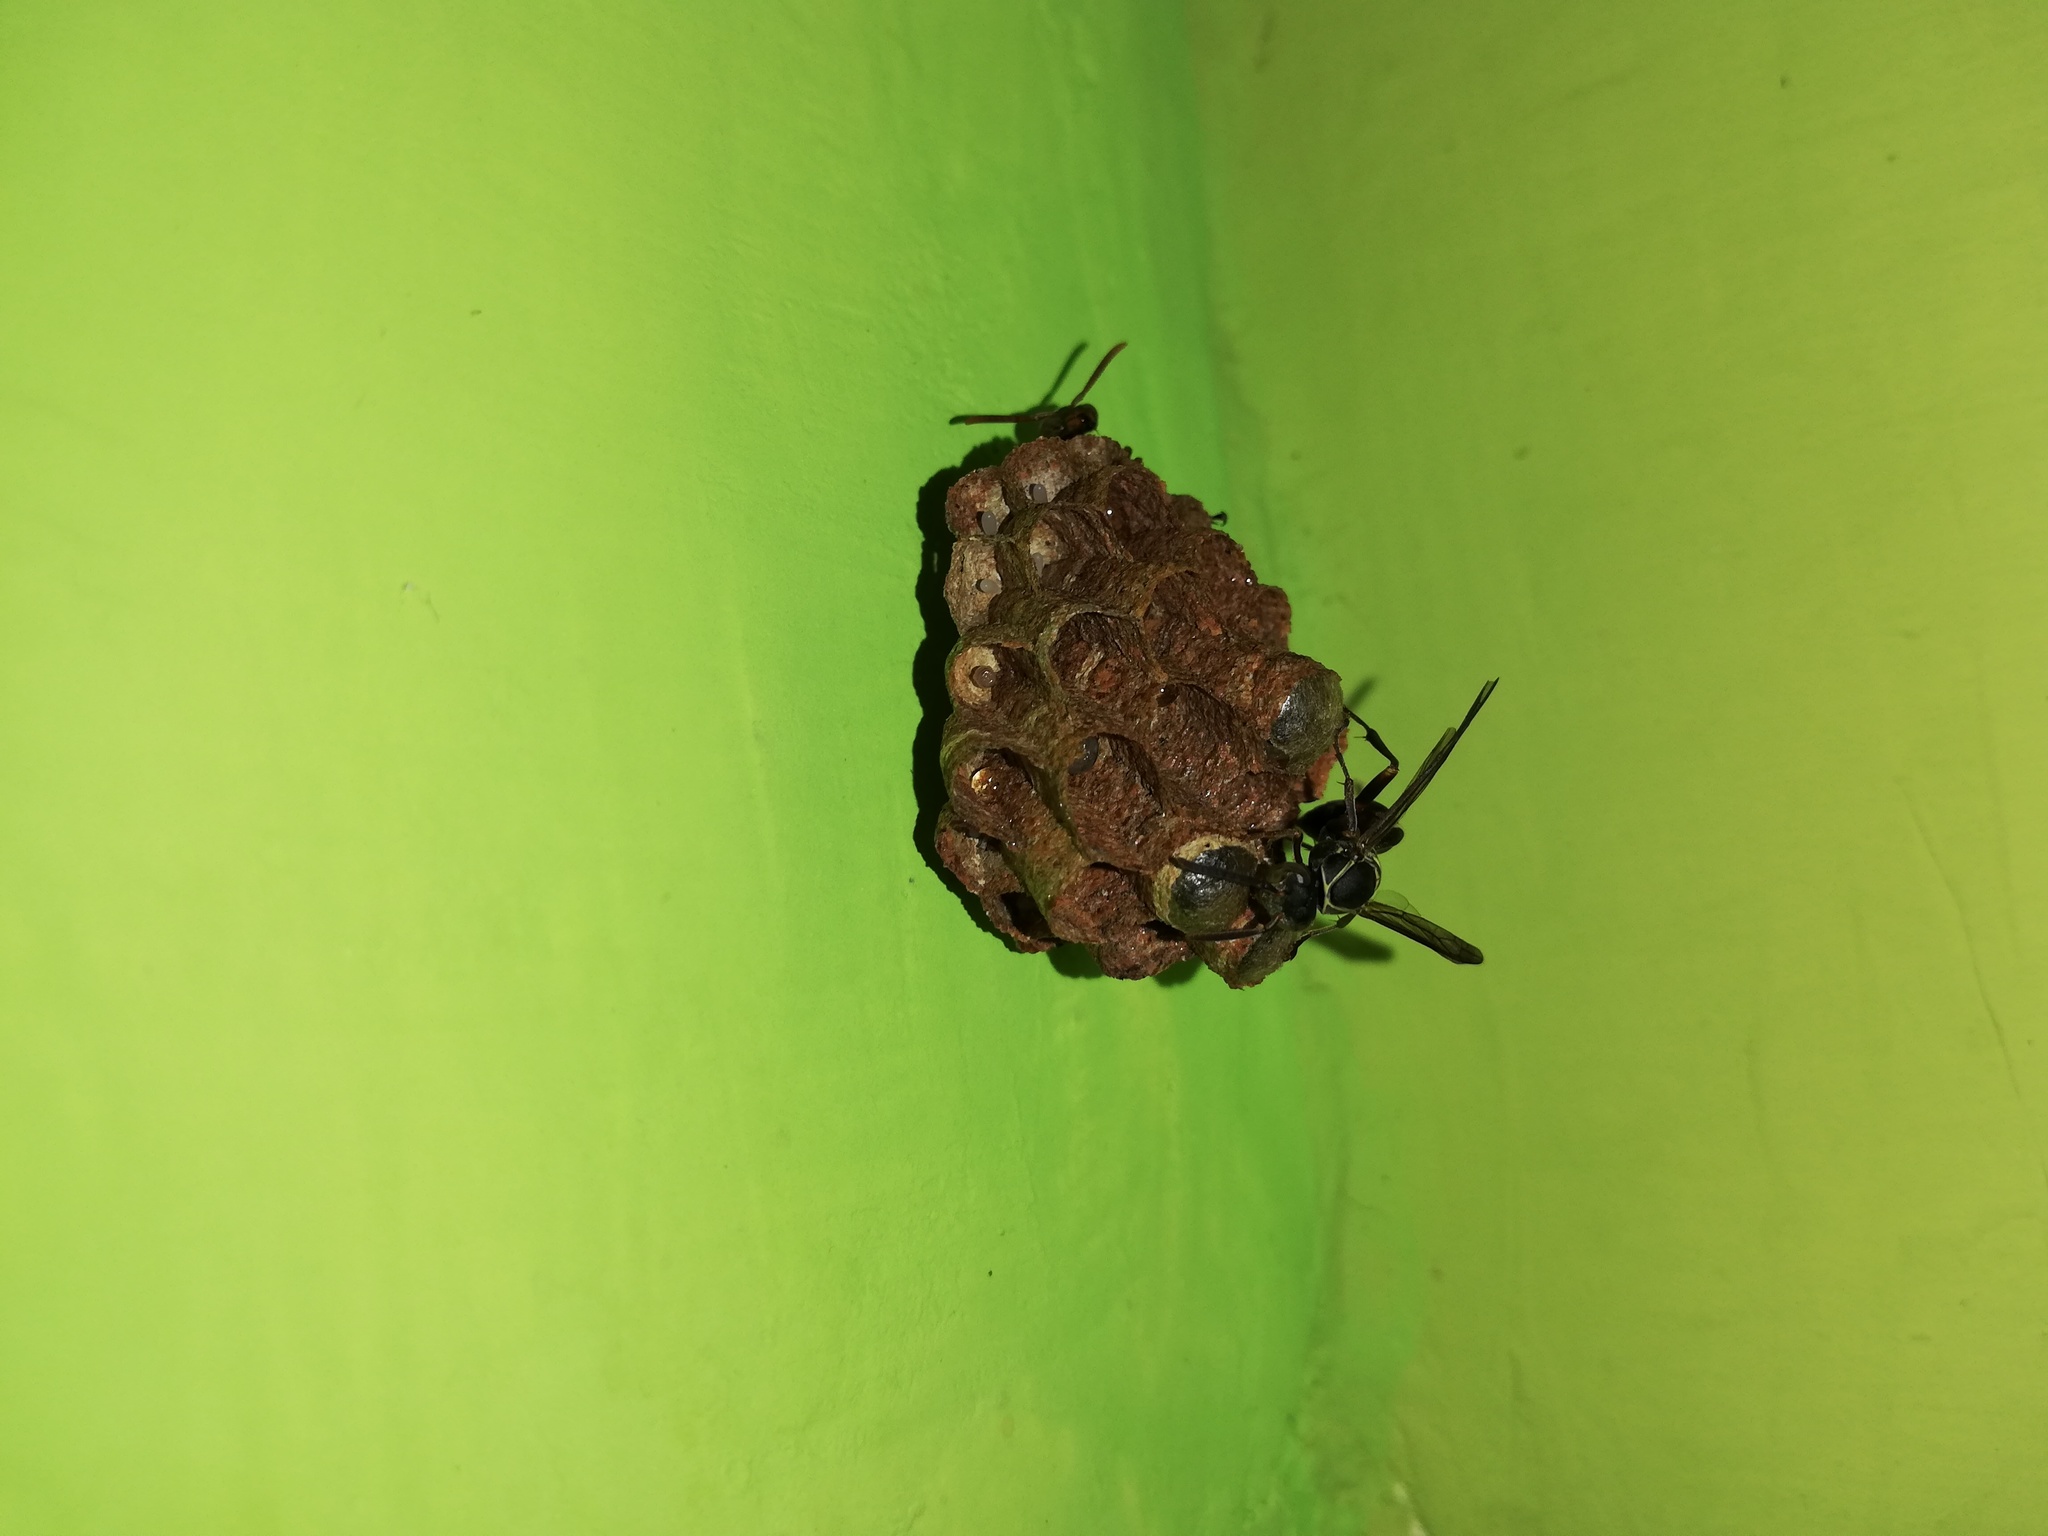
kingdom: Animalia
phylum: Arthropoda
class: Insecta
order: Hymenoptera
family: Vespidae
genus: Mischocyttarus
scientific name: Mischocyttarus rufidens
